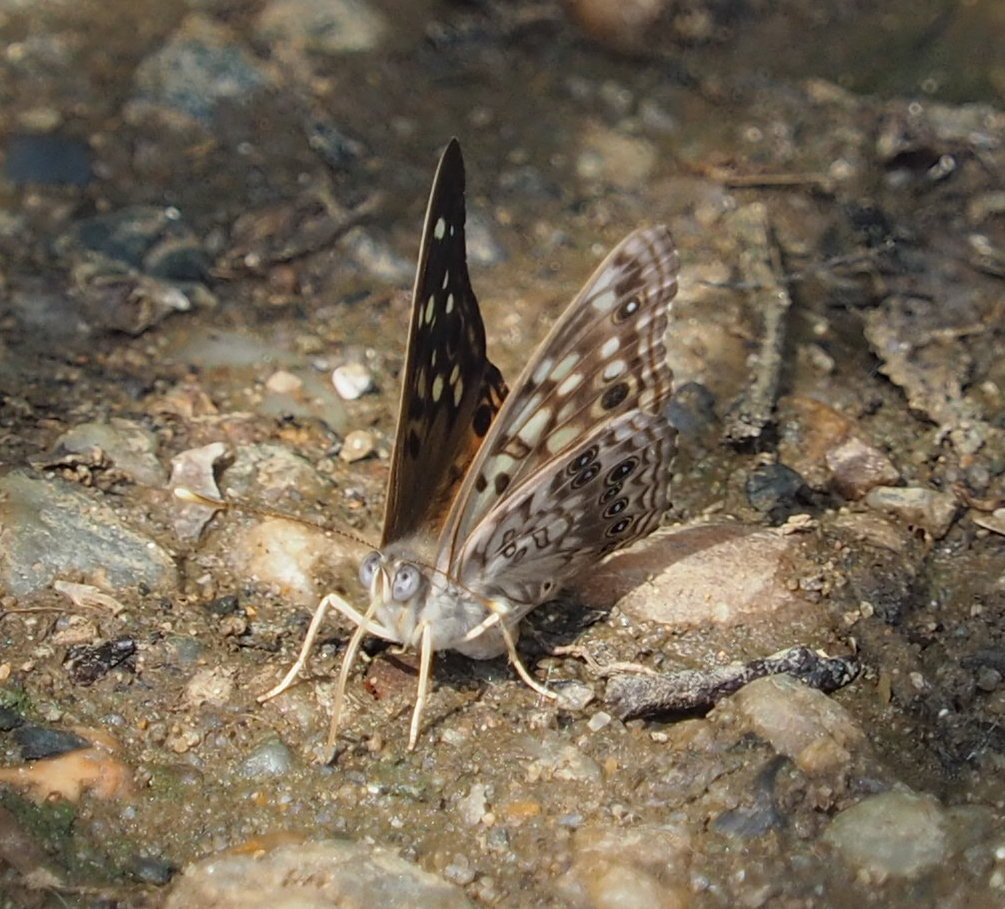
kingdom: Animalia
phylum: Arthropoda
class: Insecta
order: Lepidoptera
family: Nymphalidae
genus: Asterocampa
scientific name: Asterocampa celtis
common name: Hackberry emperor
